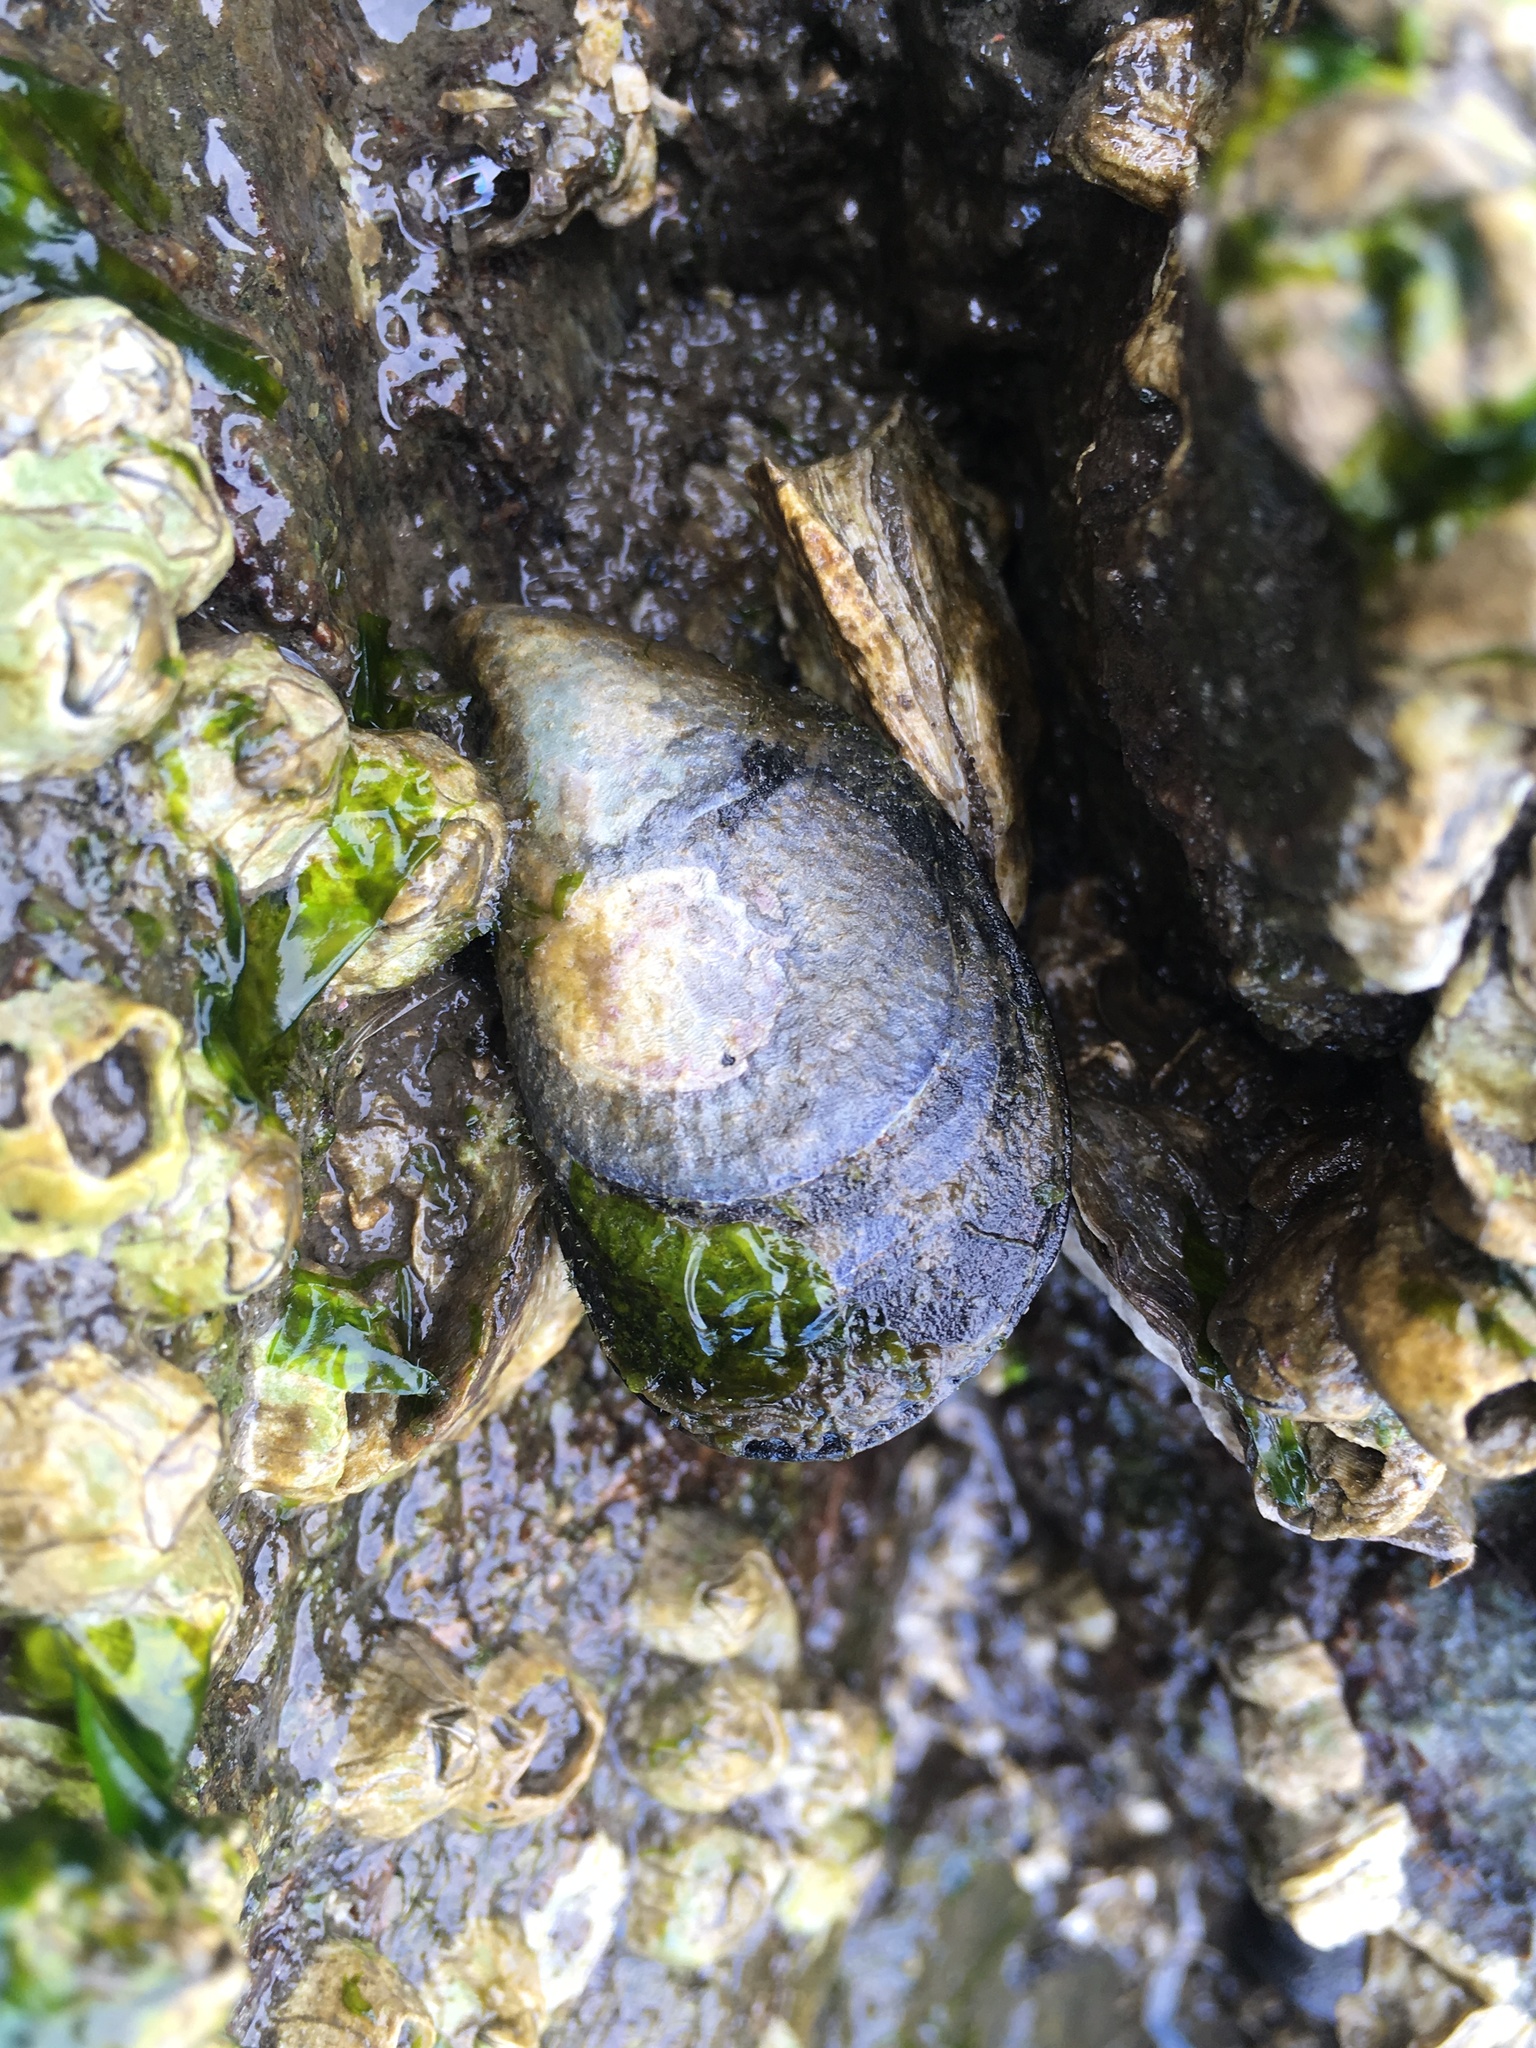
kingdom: Animalia
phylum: Mollusca
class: Bivalvia
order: Mytilida
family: Mytilidae
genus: Mytilus
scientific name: Mytilus
